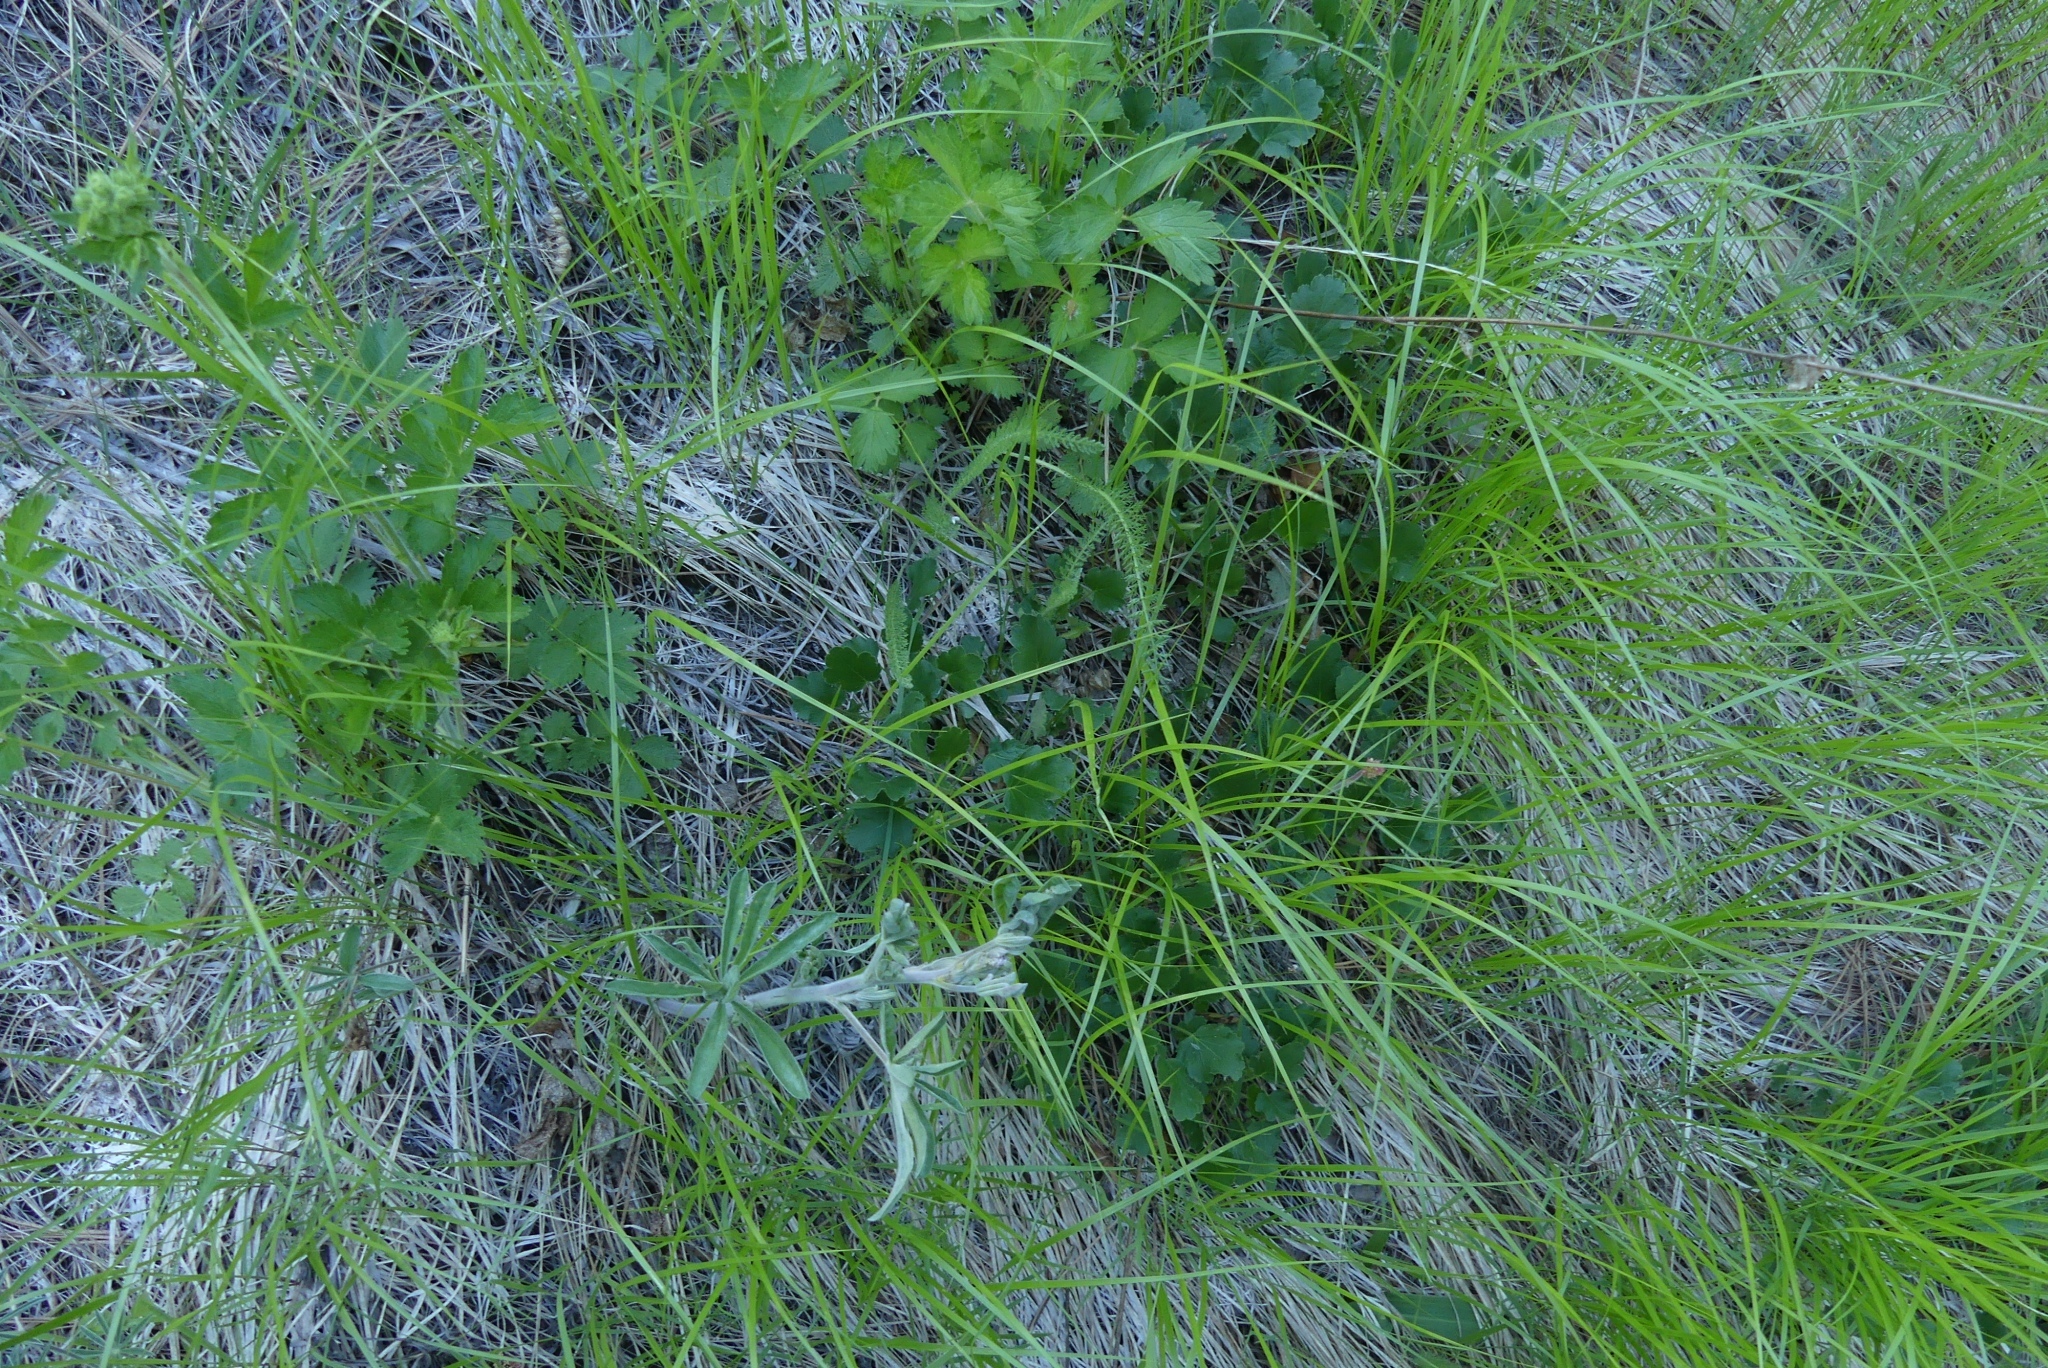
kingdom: Plantae
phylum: Tracheophyta
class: Magnoliopsida
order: Asterales
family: Asteraceae
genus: Achillea
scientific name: Achillea millefolium
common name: Yarrow
